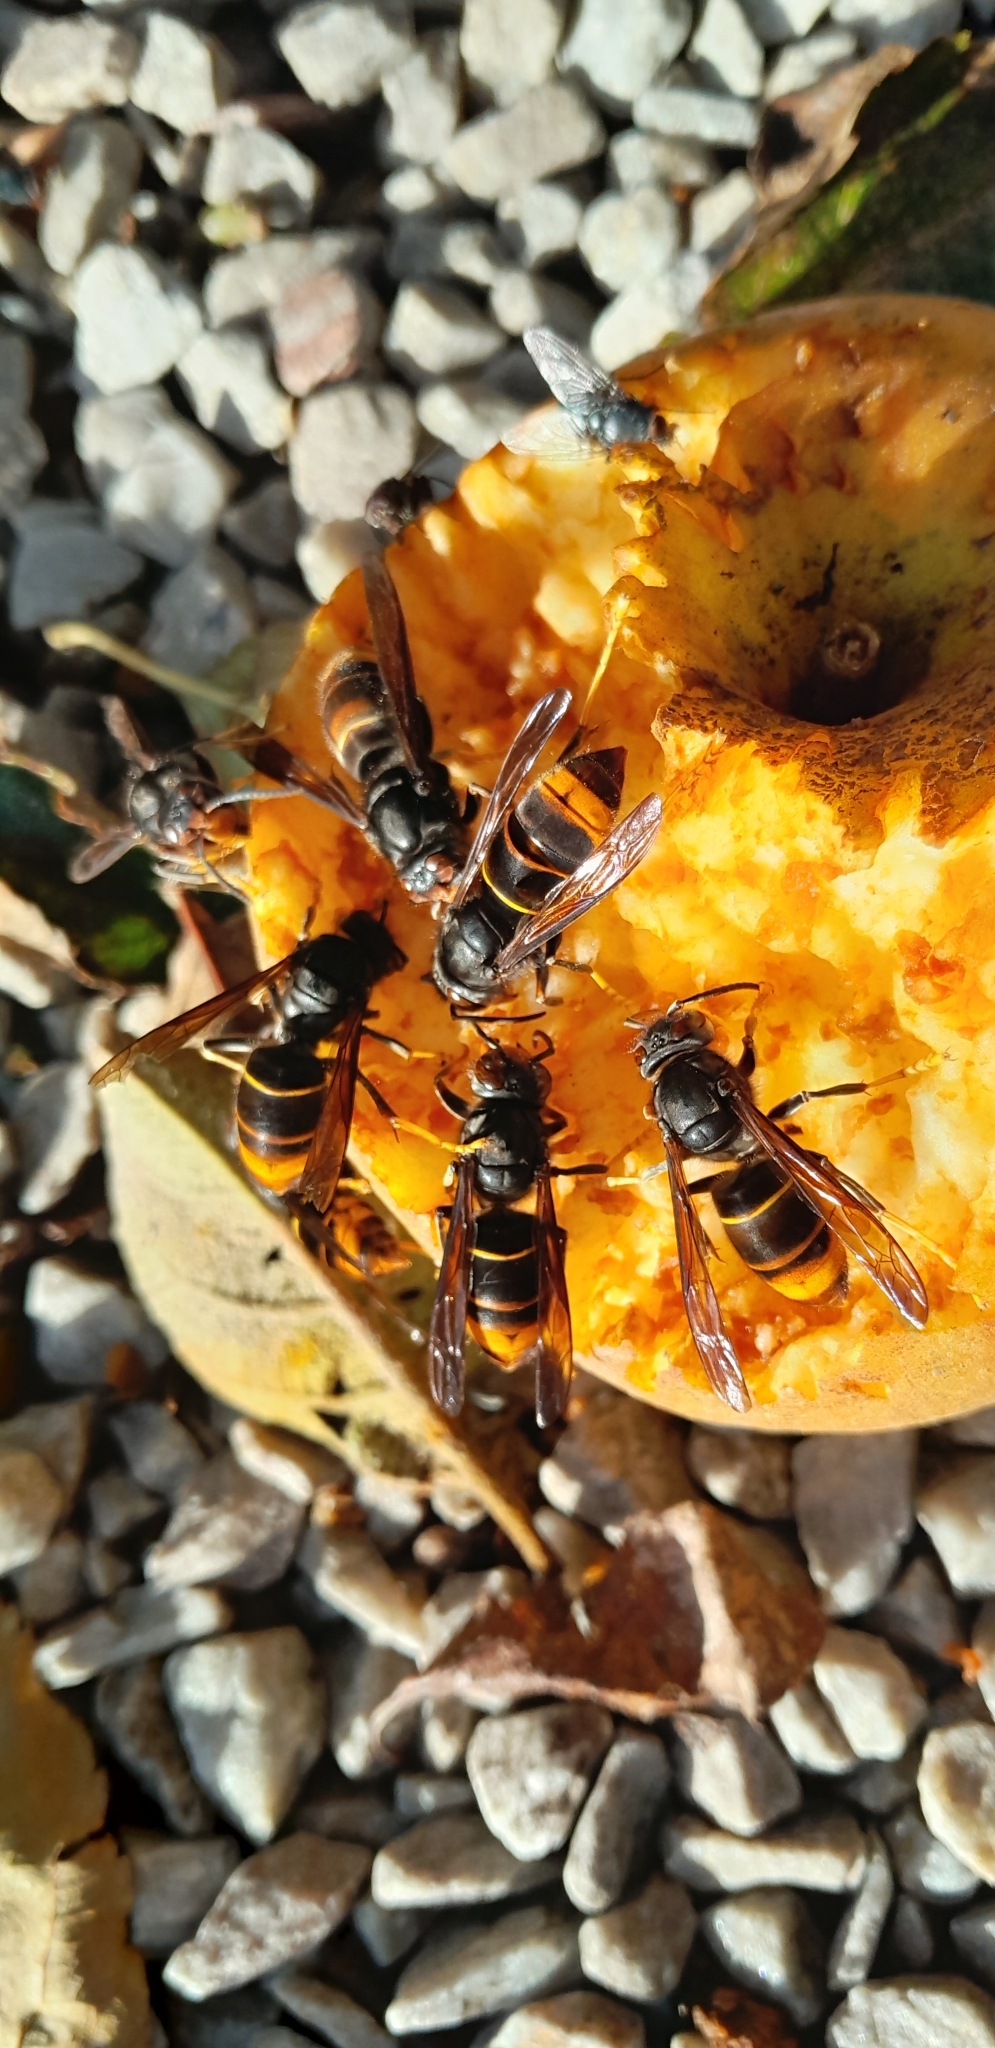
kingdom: Animalia
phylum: Arthropoda
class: Insecta
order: Hymenoptera
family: Vespidae
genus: Vespa
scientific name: Vespa velutina
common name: Asian hornet
